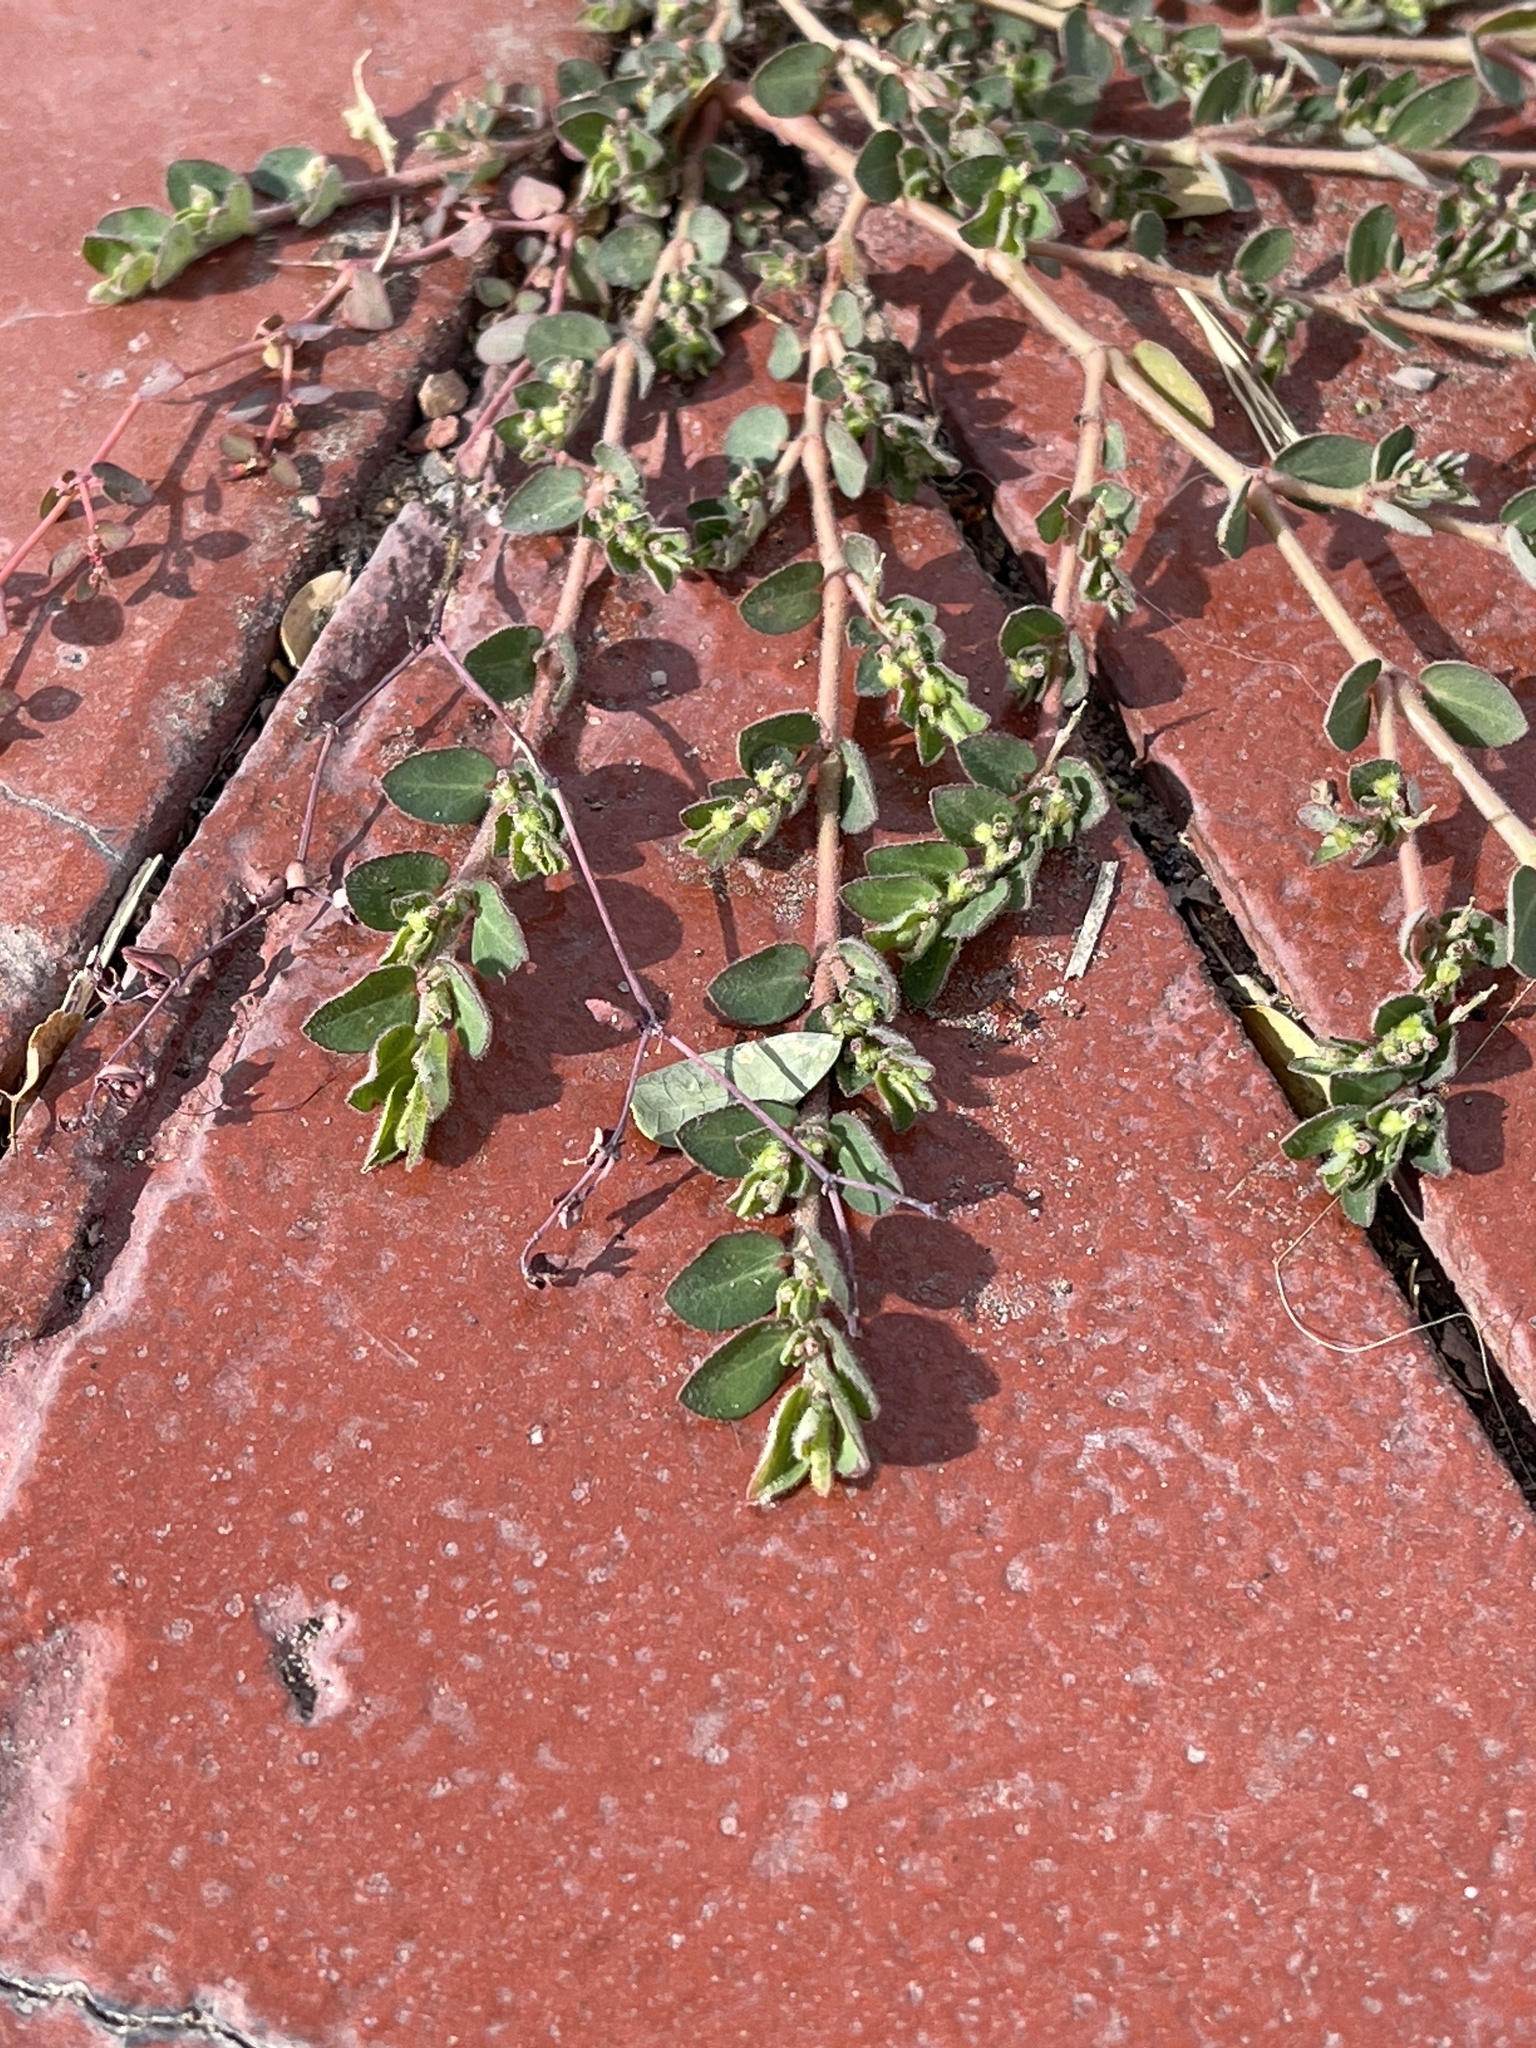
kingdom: Plantae
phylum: Tracheophyta
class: Magnoliopsida
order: Malpighiales
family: Euphorbiaceae
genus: Euphorbia
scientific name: Euphorbia prostrata
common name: Prostrate sandmat
